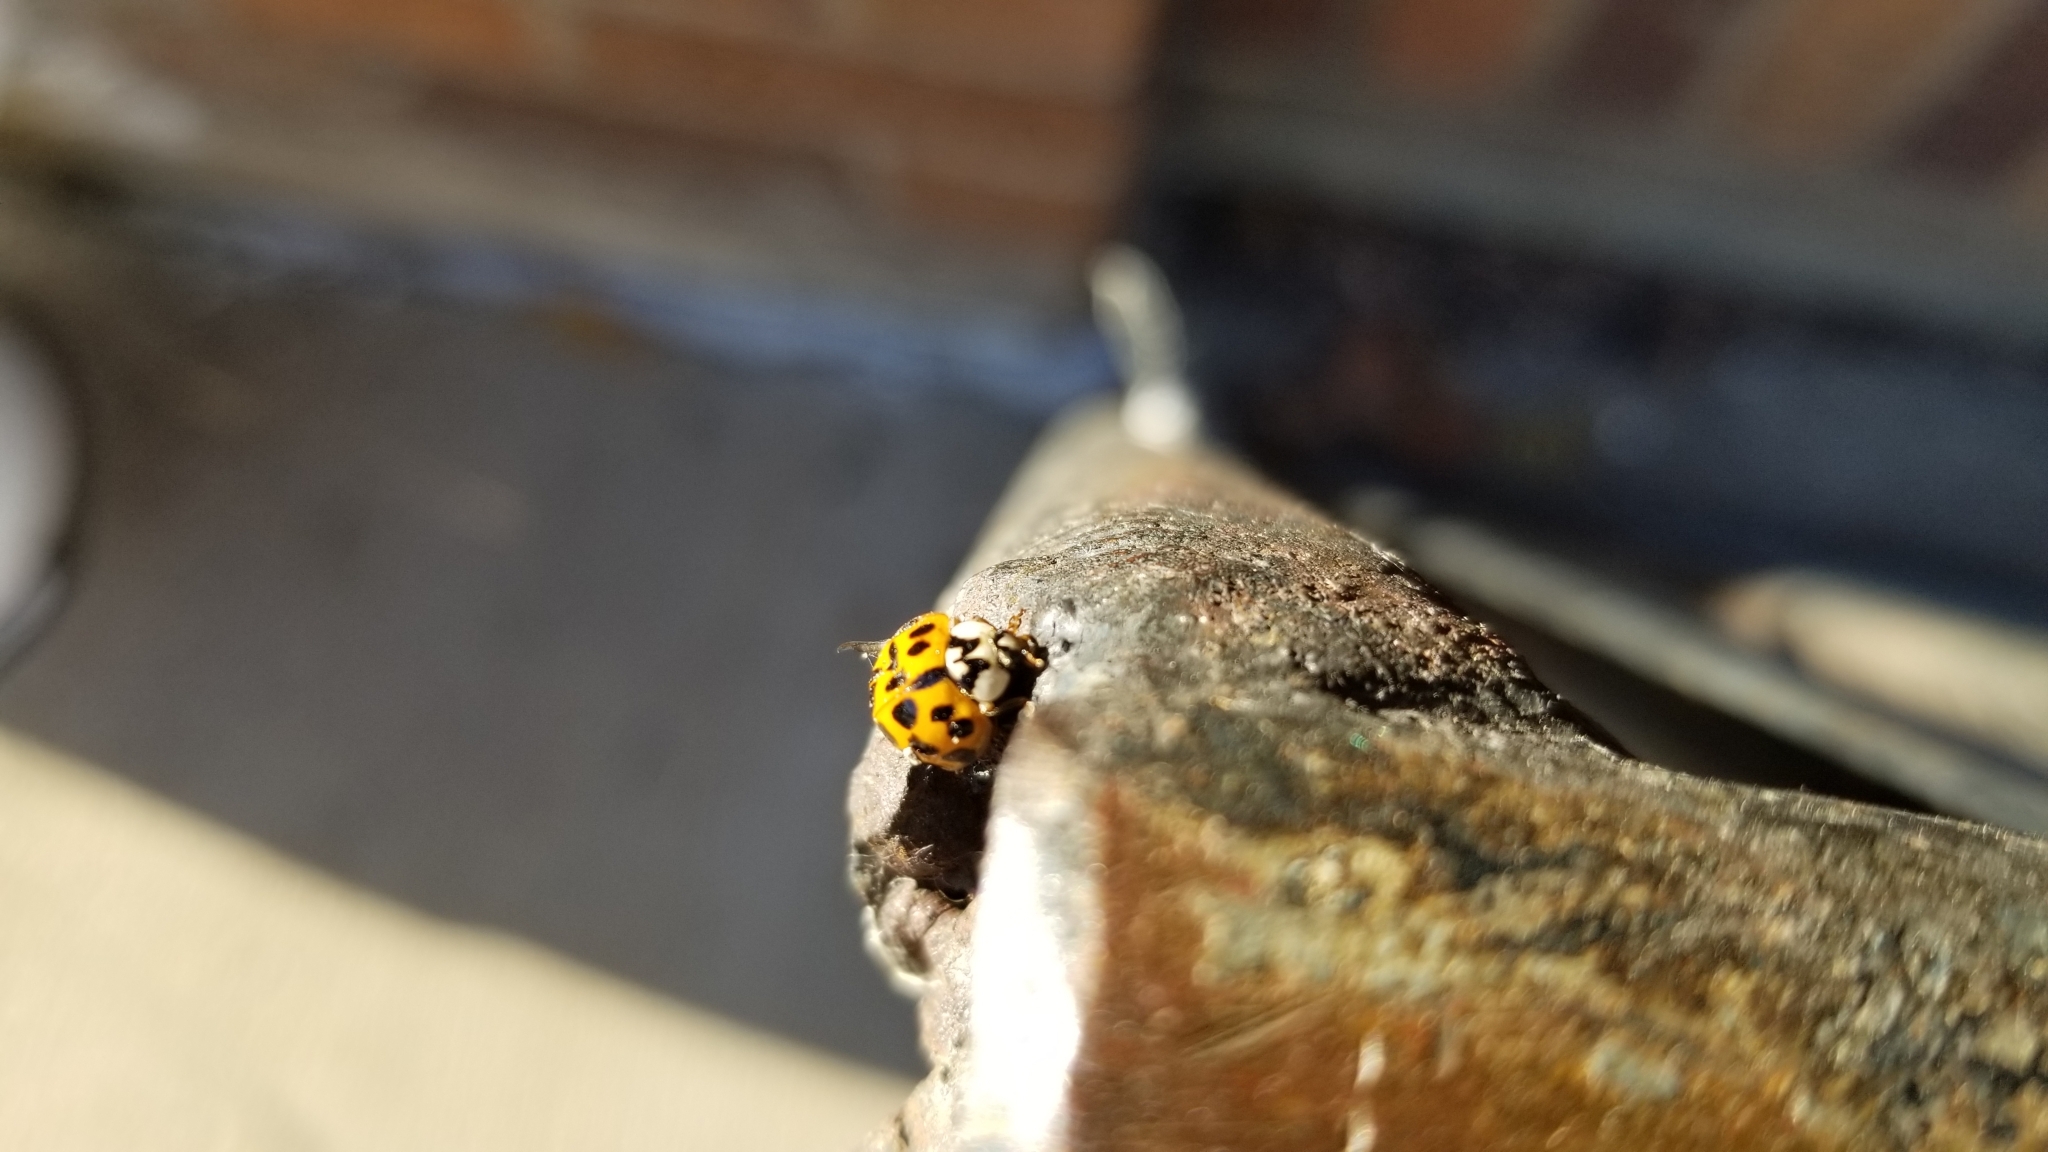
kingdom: Animalia
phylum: Arthropoda
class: Insecta
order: Coleoptera
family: Coccinellidae
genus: Harmonia
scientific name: Harmonia axyridis
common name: Harlequin ladybird
